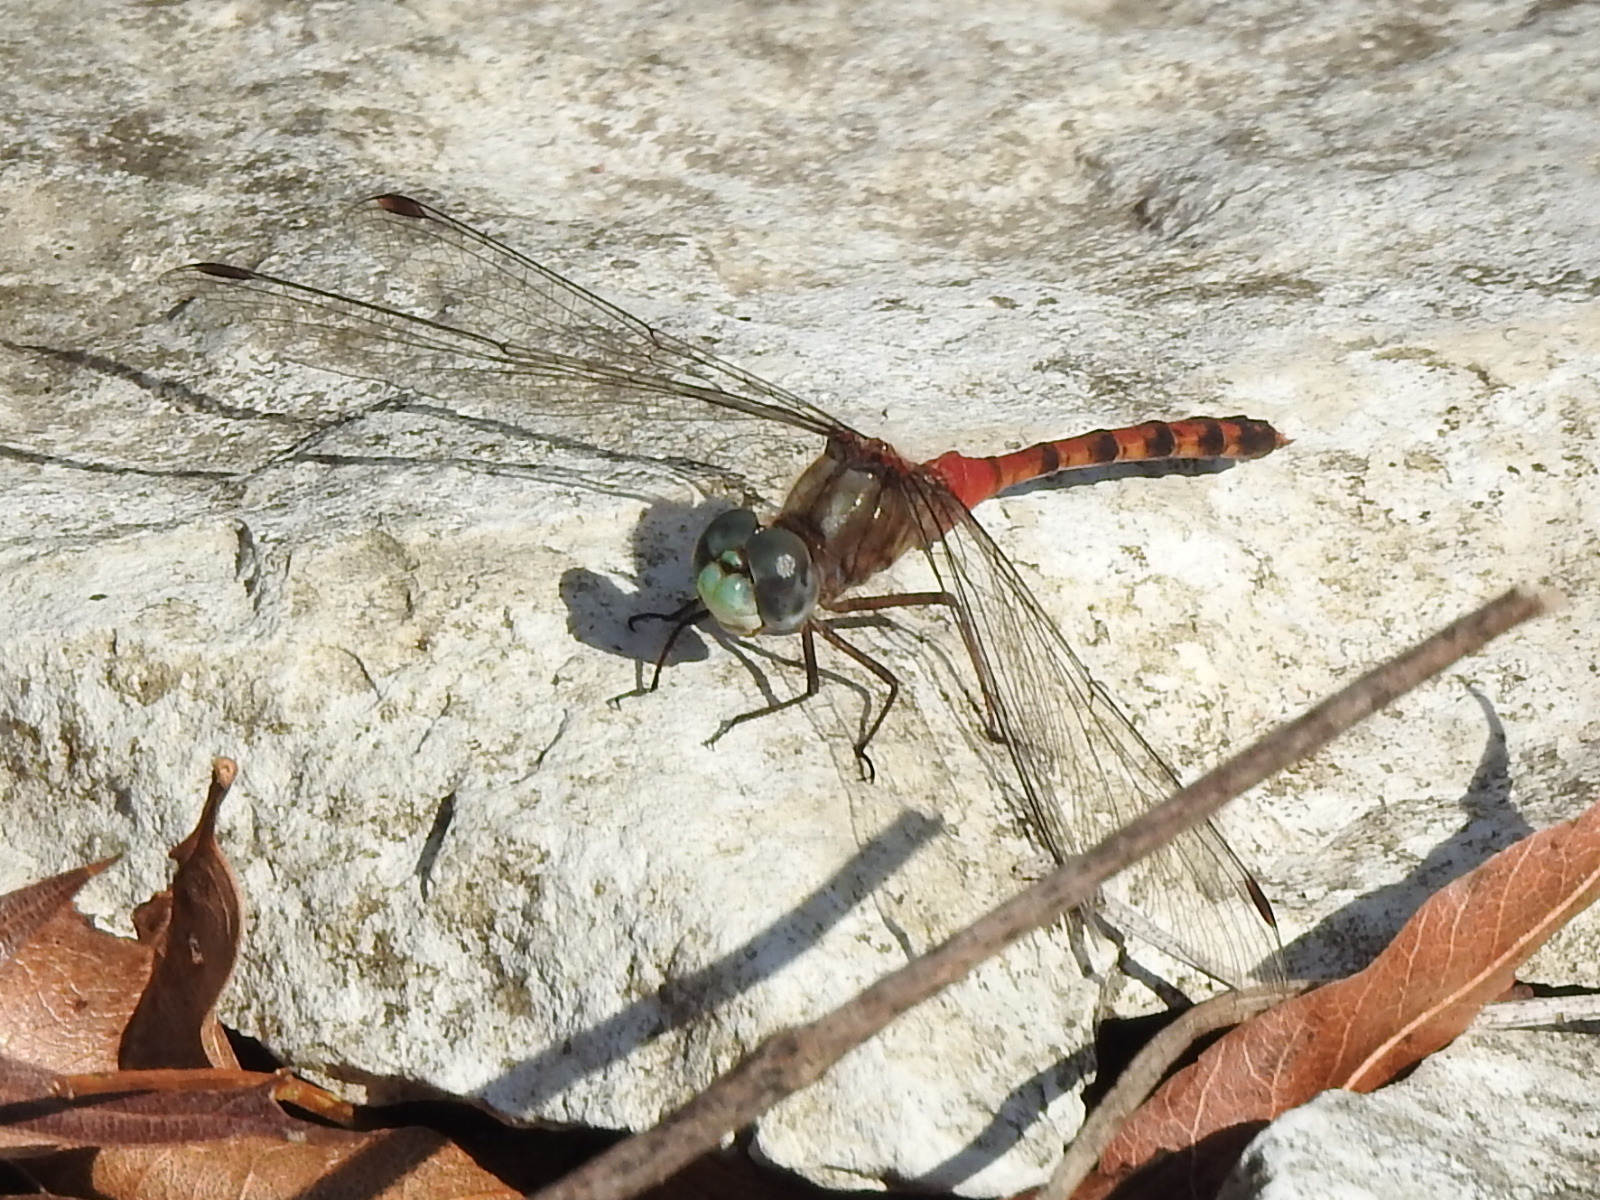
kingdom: Animalia
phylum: Arthropoda
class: Insecta
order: Odonata
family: Libellulidae
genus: Sympetrum
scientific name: Sympetrum ambiguum
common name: Blue-faced meadowhawk
